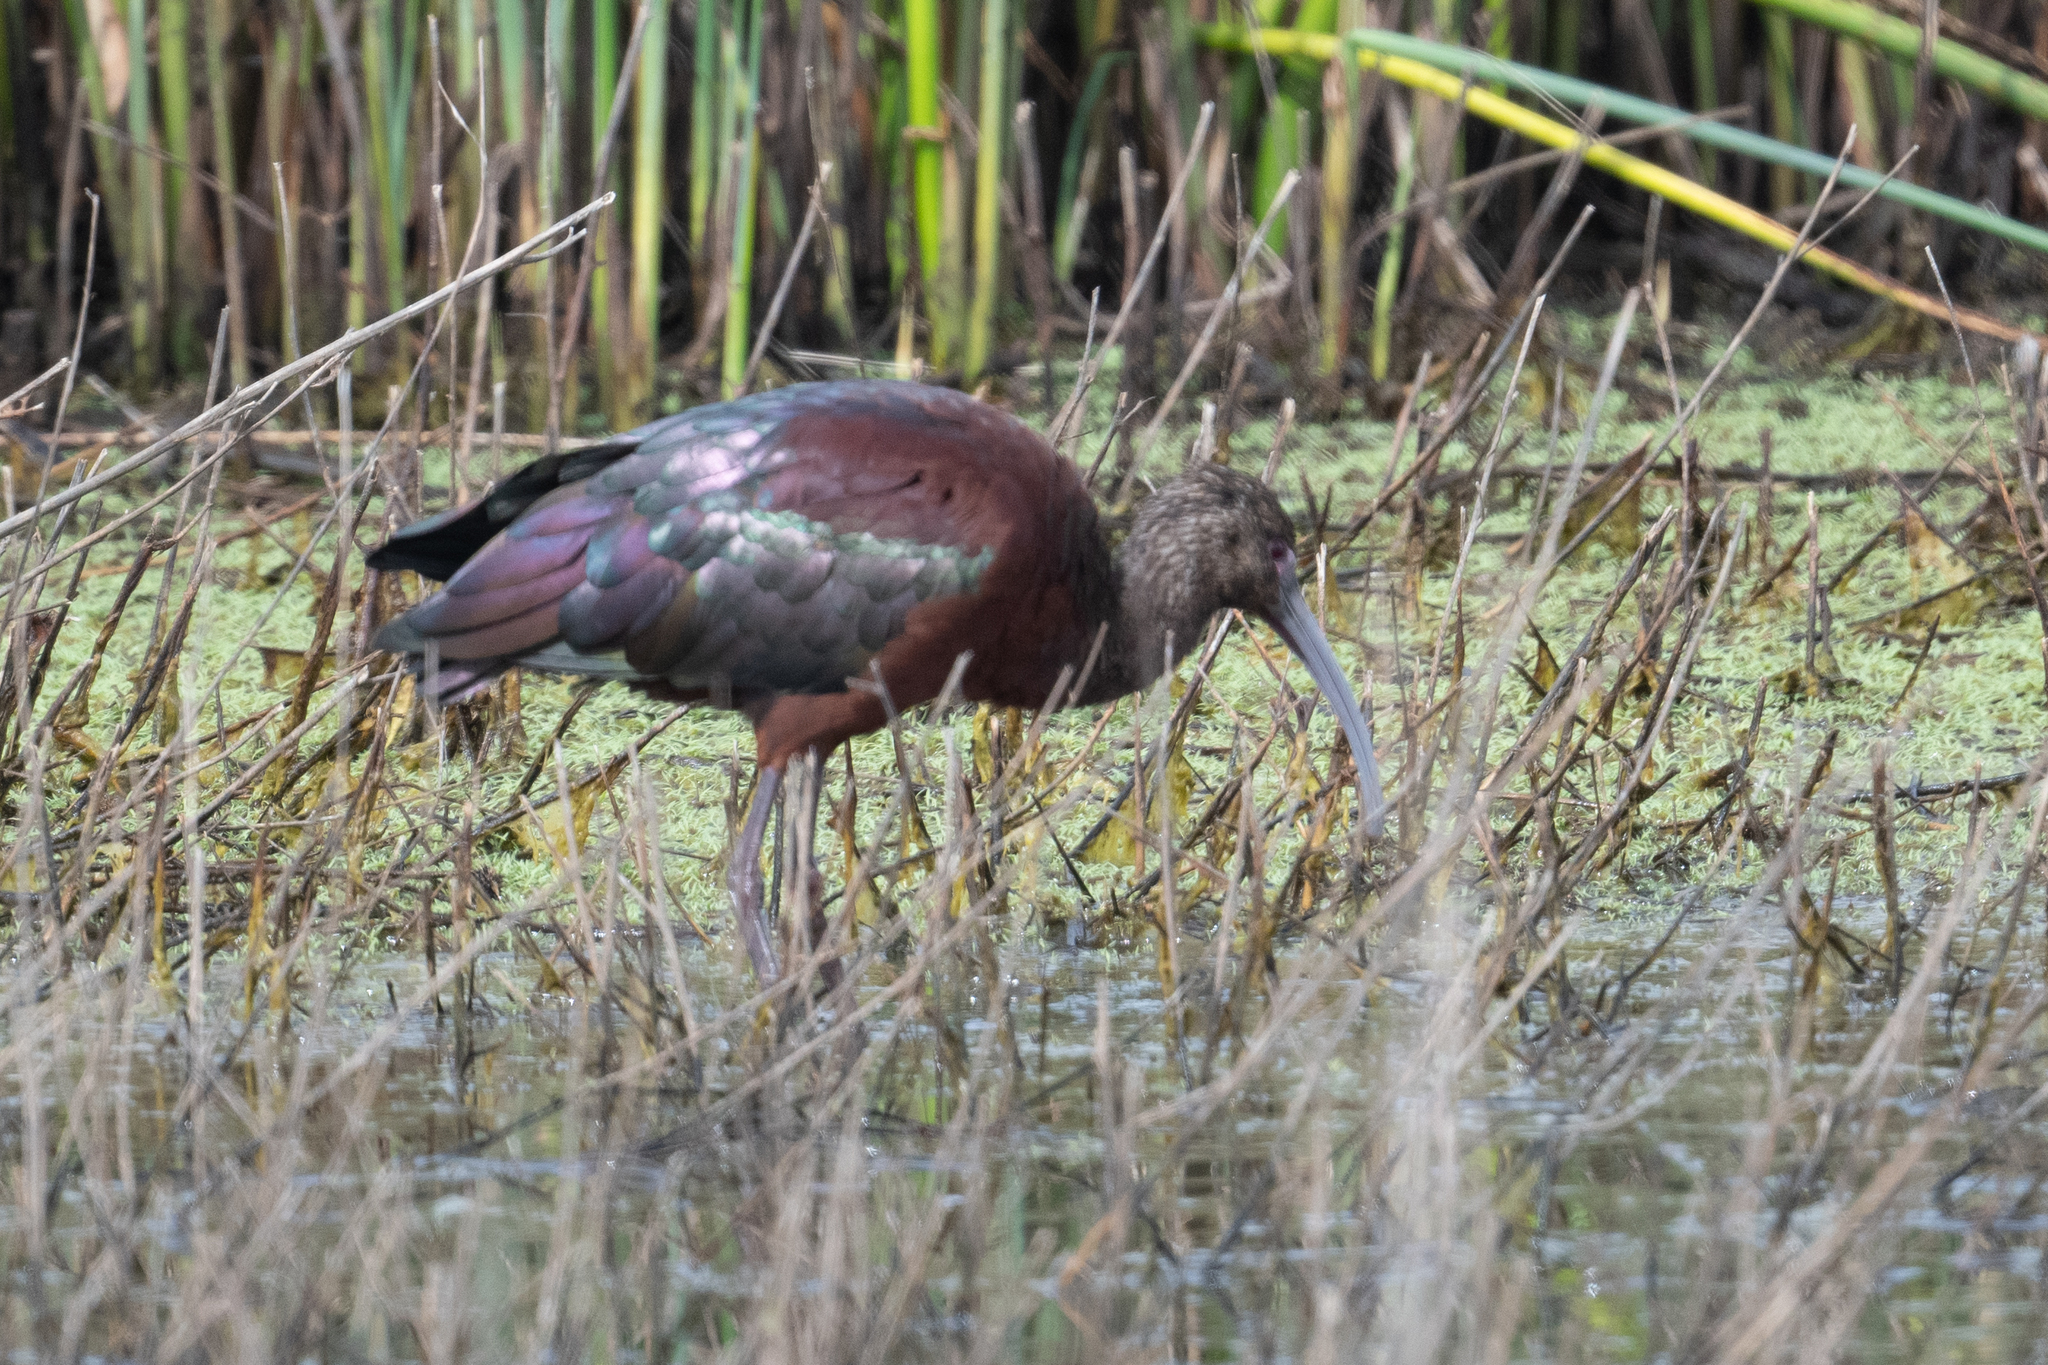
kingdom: Animalia
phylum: Chordata
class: Aves
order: Pelecaniformes
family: Threskiornithidae
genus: Plegadis
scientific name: Plegadis chihi
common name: White-faced ibis
